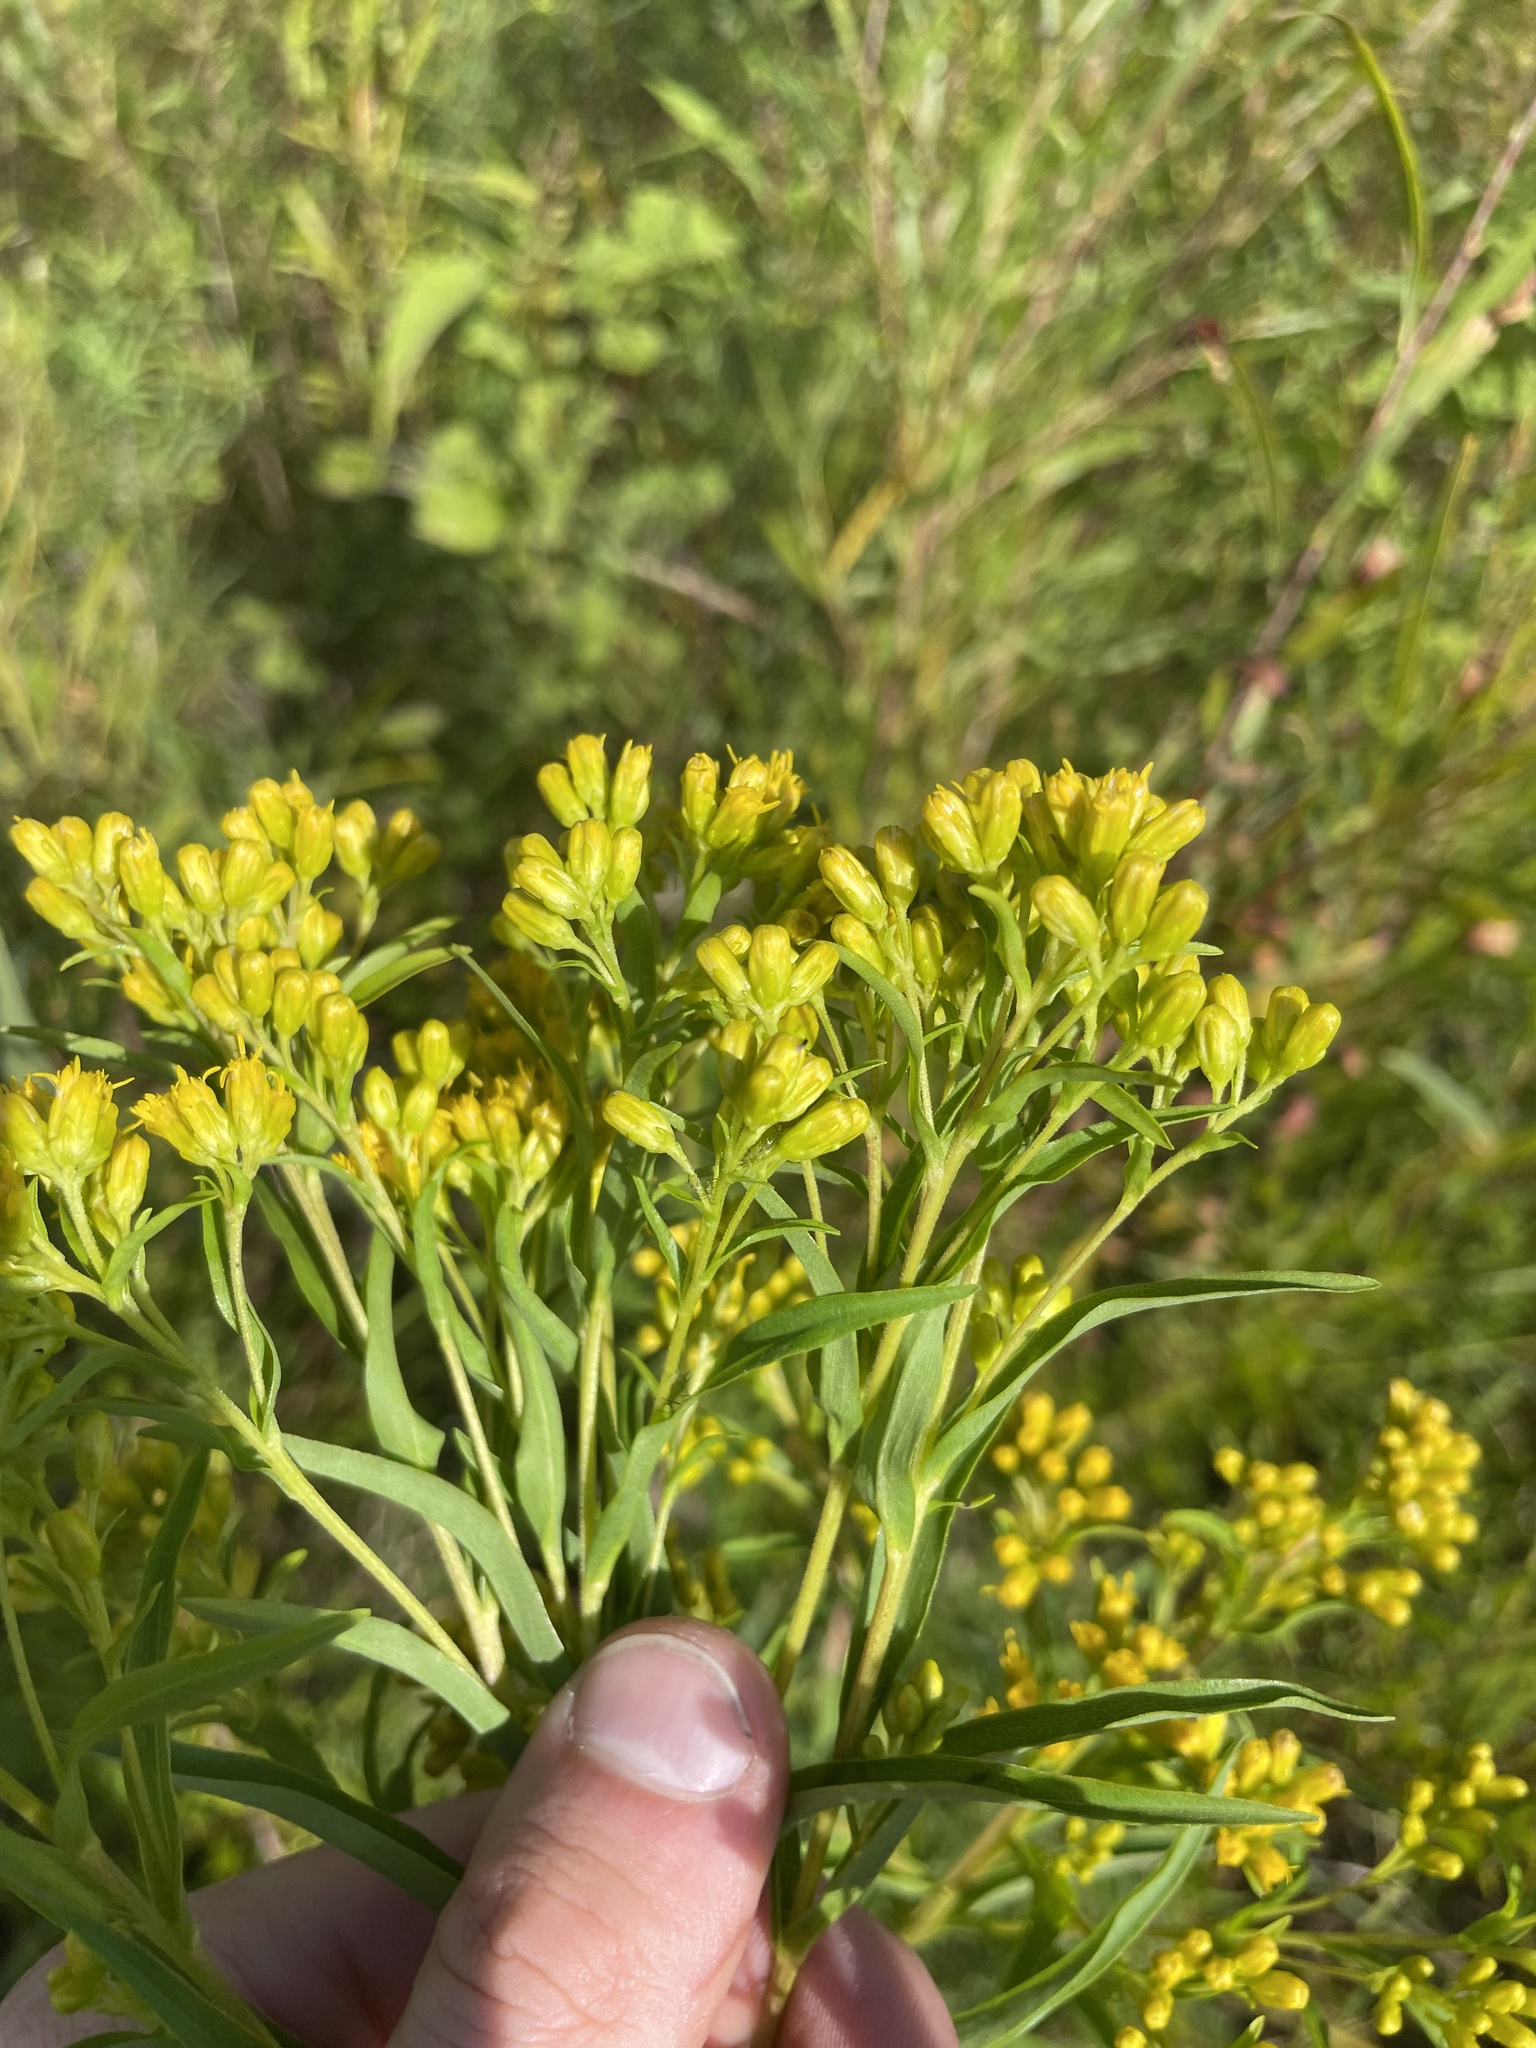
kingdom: Plantae
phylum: Tracheophyta
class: Magnoliopsida
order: Asterales
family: Asteraceae
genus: Solidago
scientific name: Solidago riddellii
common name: Riddell's goldenrod
